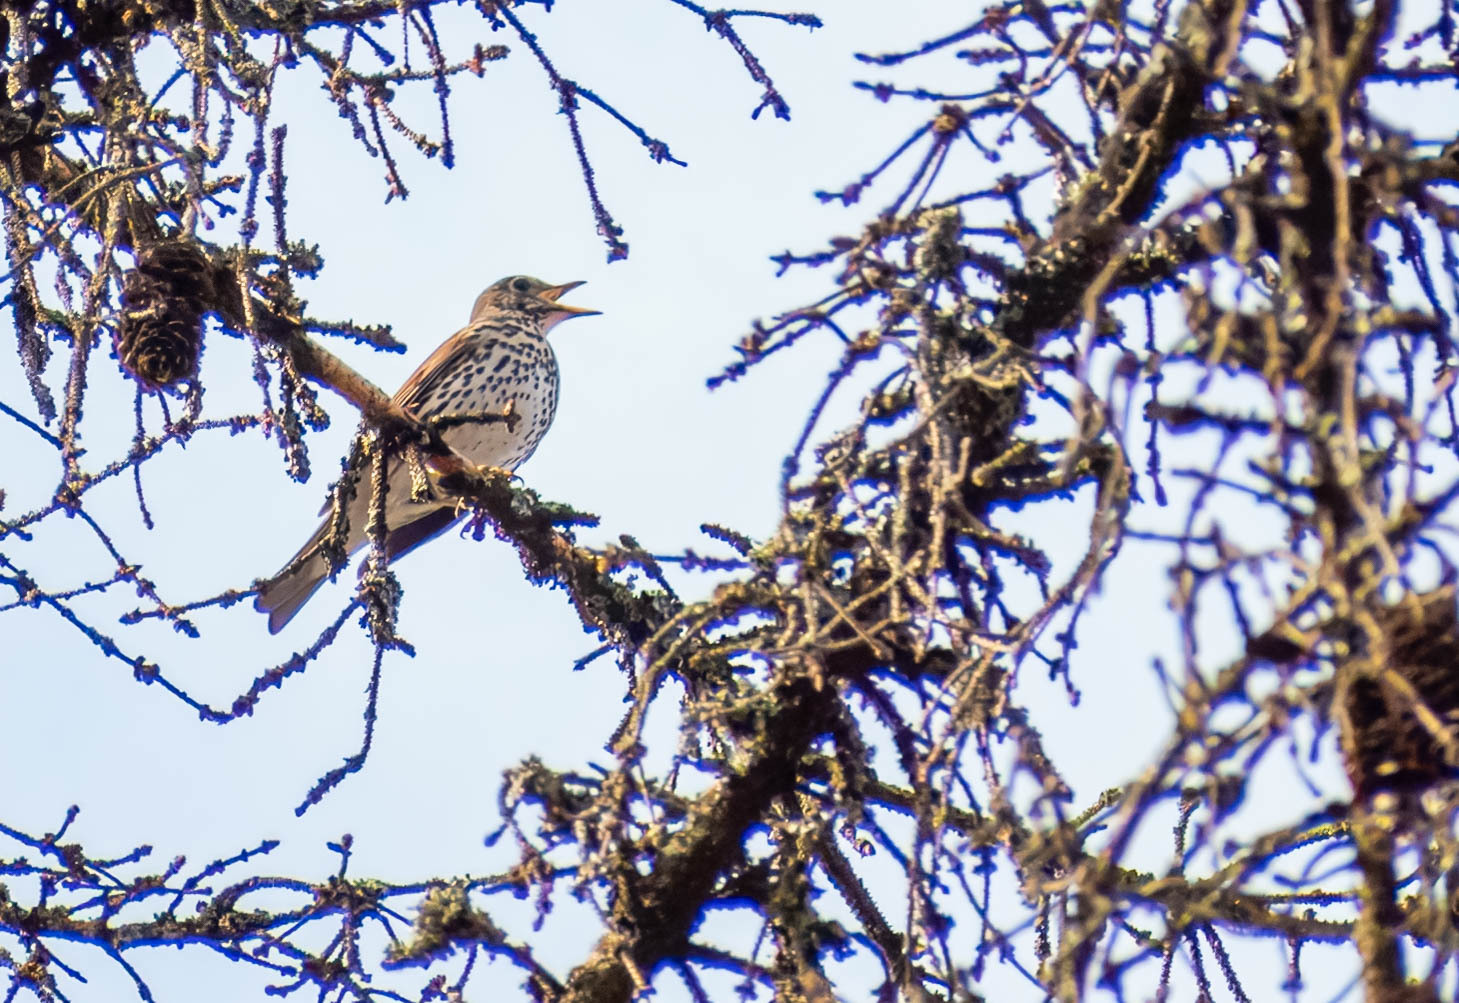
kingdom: Animalia
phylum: Chordata
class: Aves
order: Passeriformes
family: Turdidae
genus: Turdus
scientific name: Turdus philomelos
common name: Song thrush
